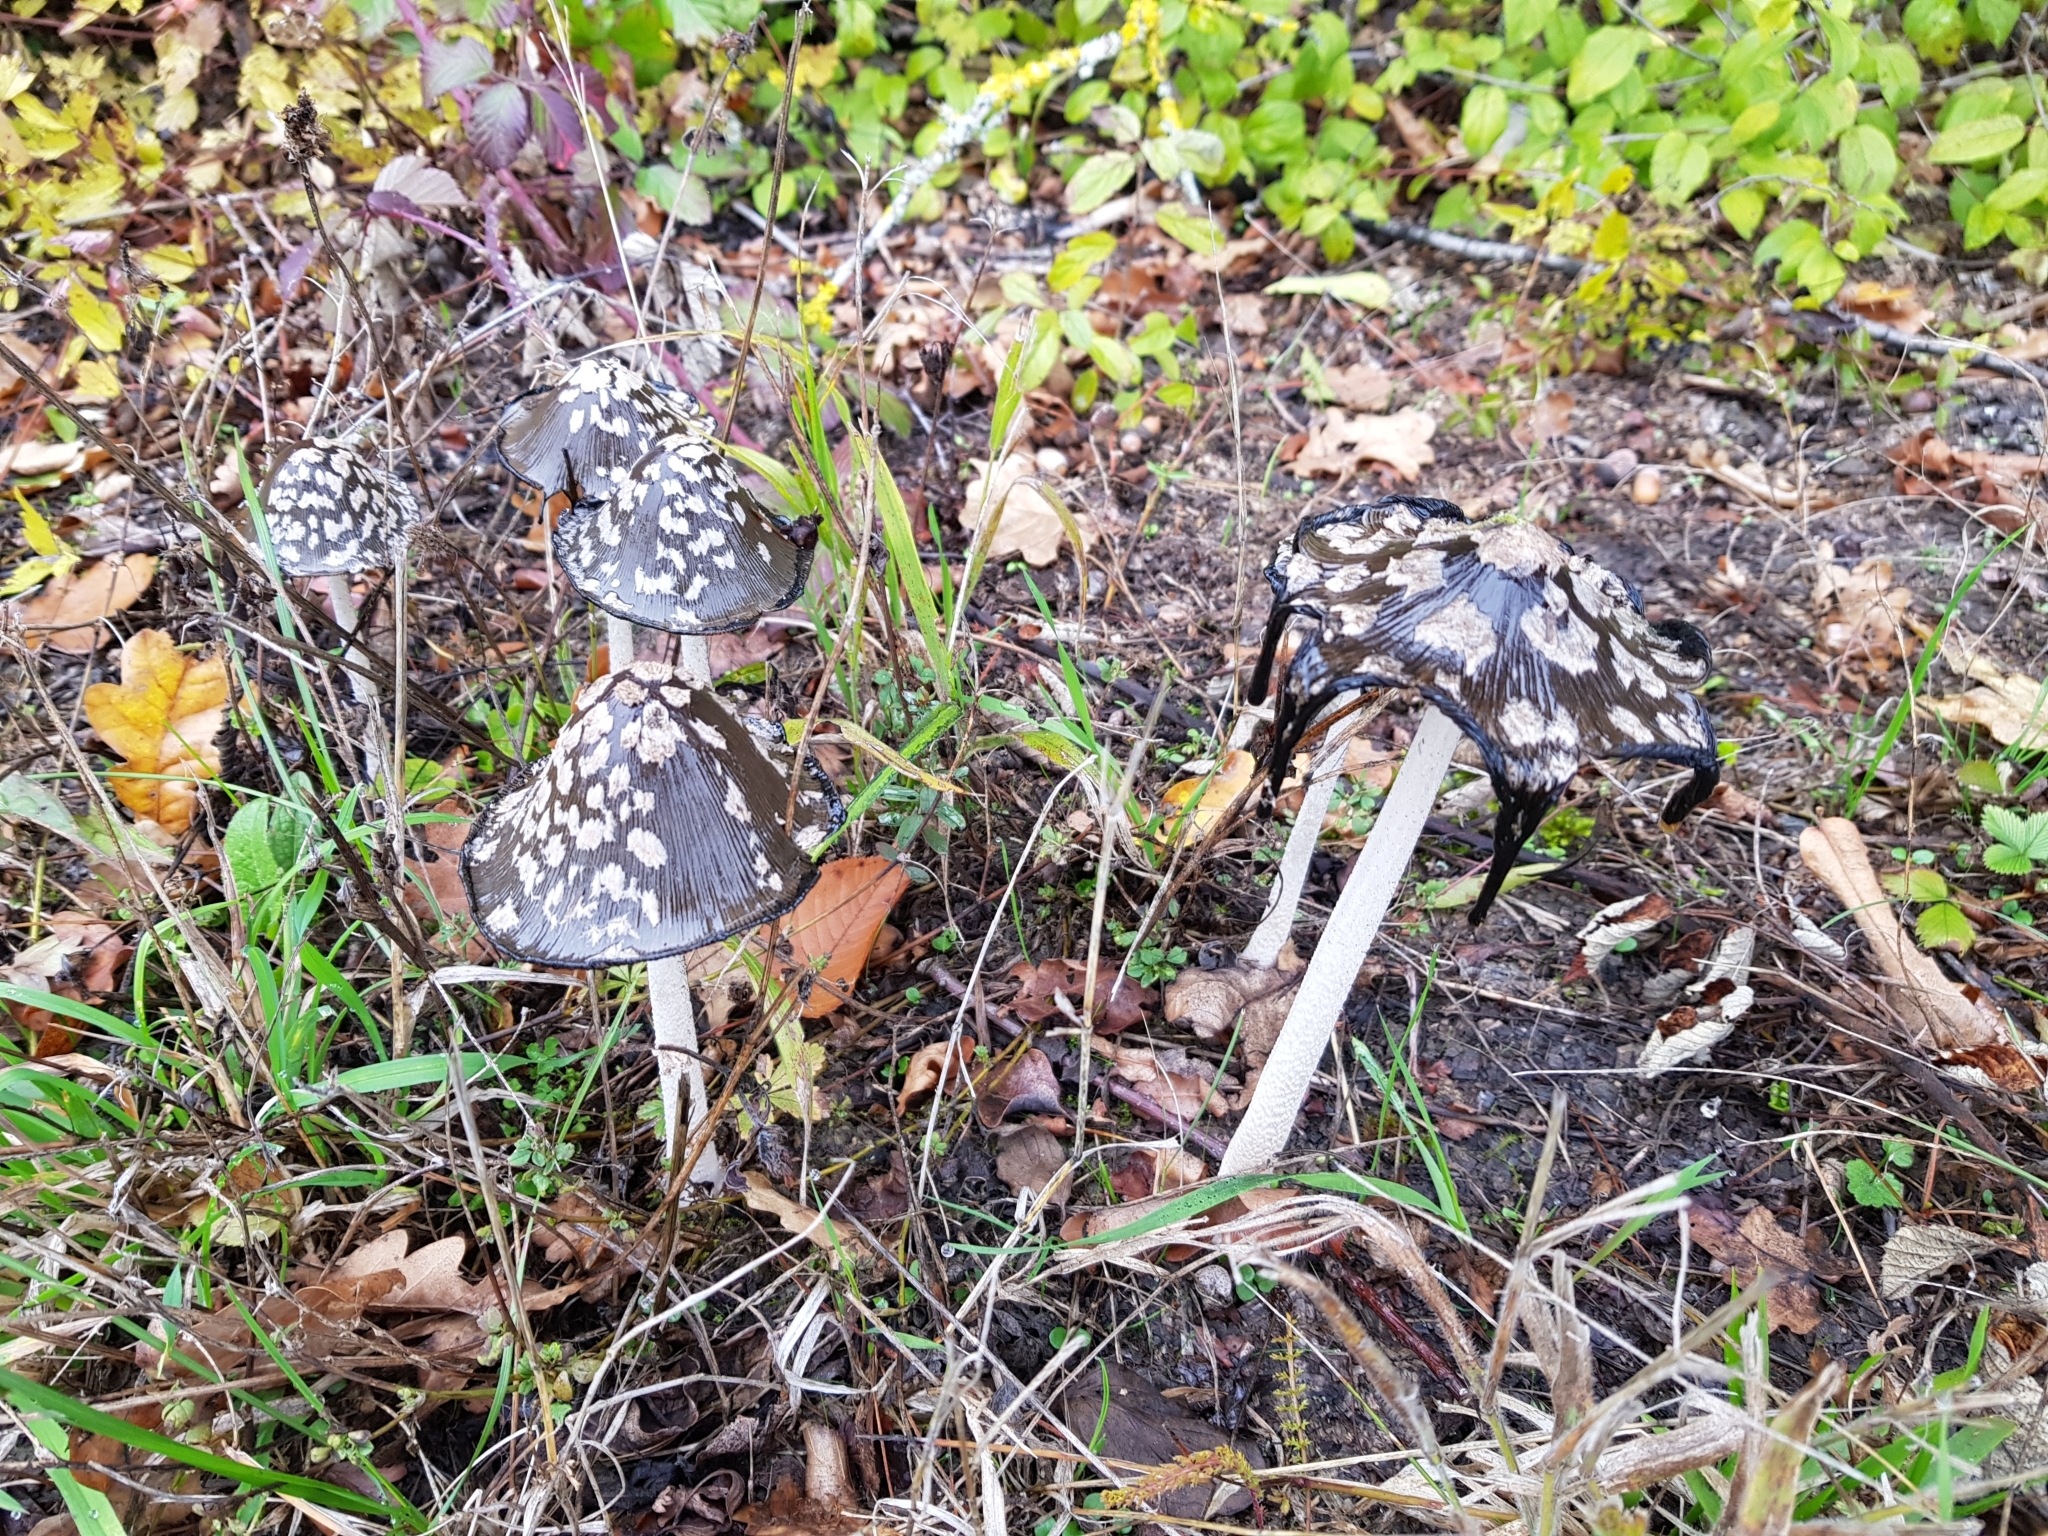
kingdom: Fungi
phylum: Basidiomycota
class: Agaricomycetes
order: Agaricales
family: Psathyrellaceae
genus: Coprinopsis
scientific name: Coprinopsis picacea
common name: Magpie inkcap
